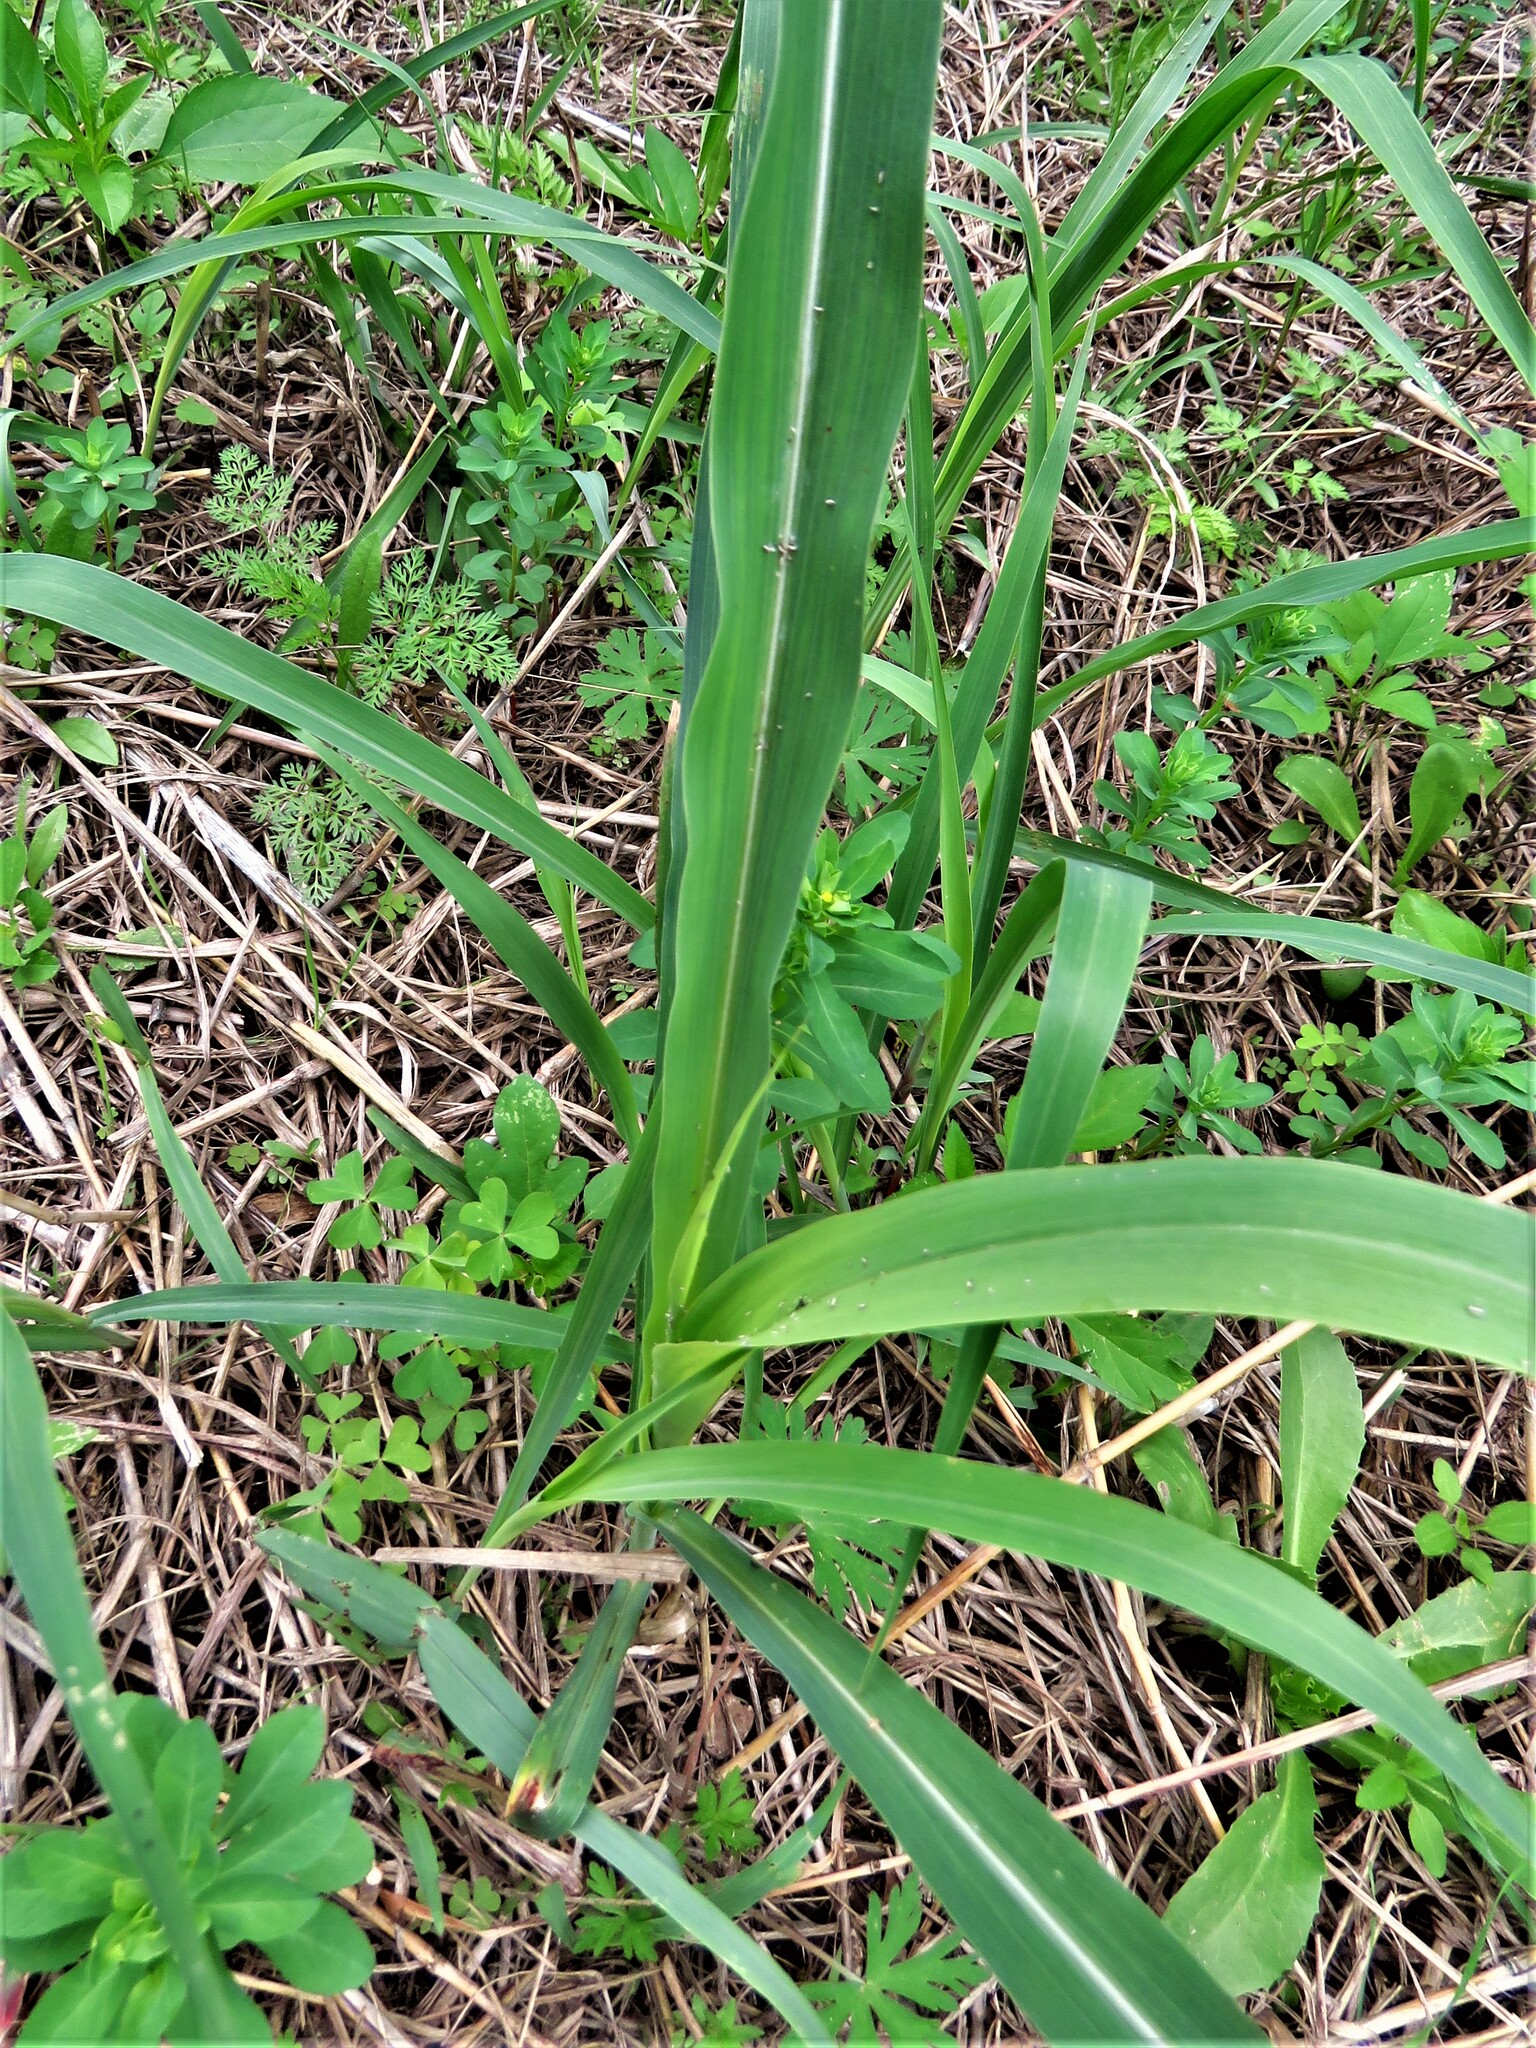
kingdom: Plantae
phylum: Tracheophyta
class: Liliopsida
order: Poales
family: Poaceae
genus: Sorghum
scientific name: Sorghum halepense
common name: Johnson-grass
